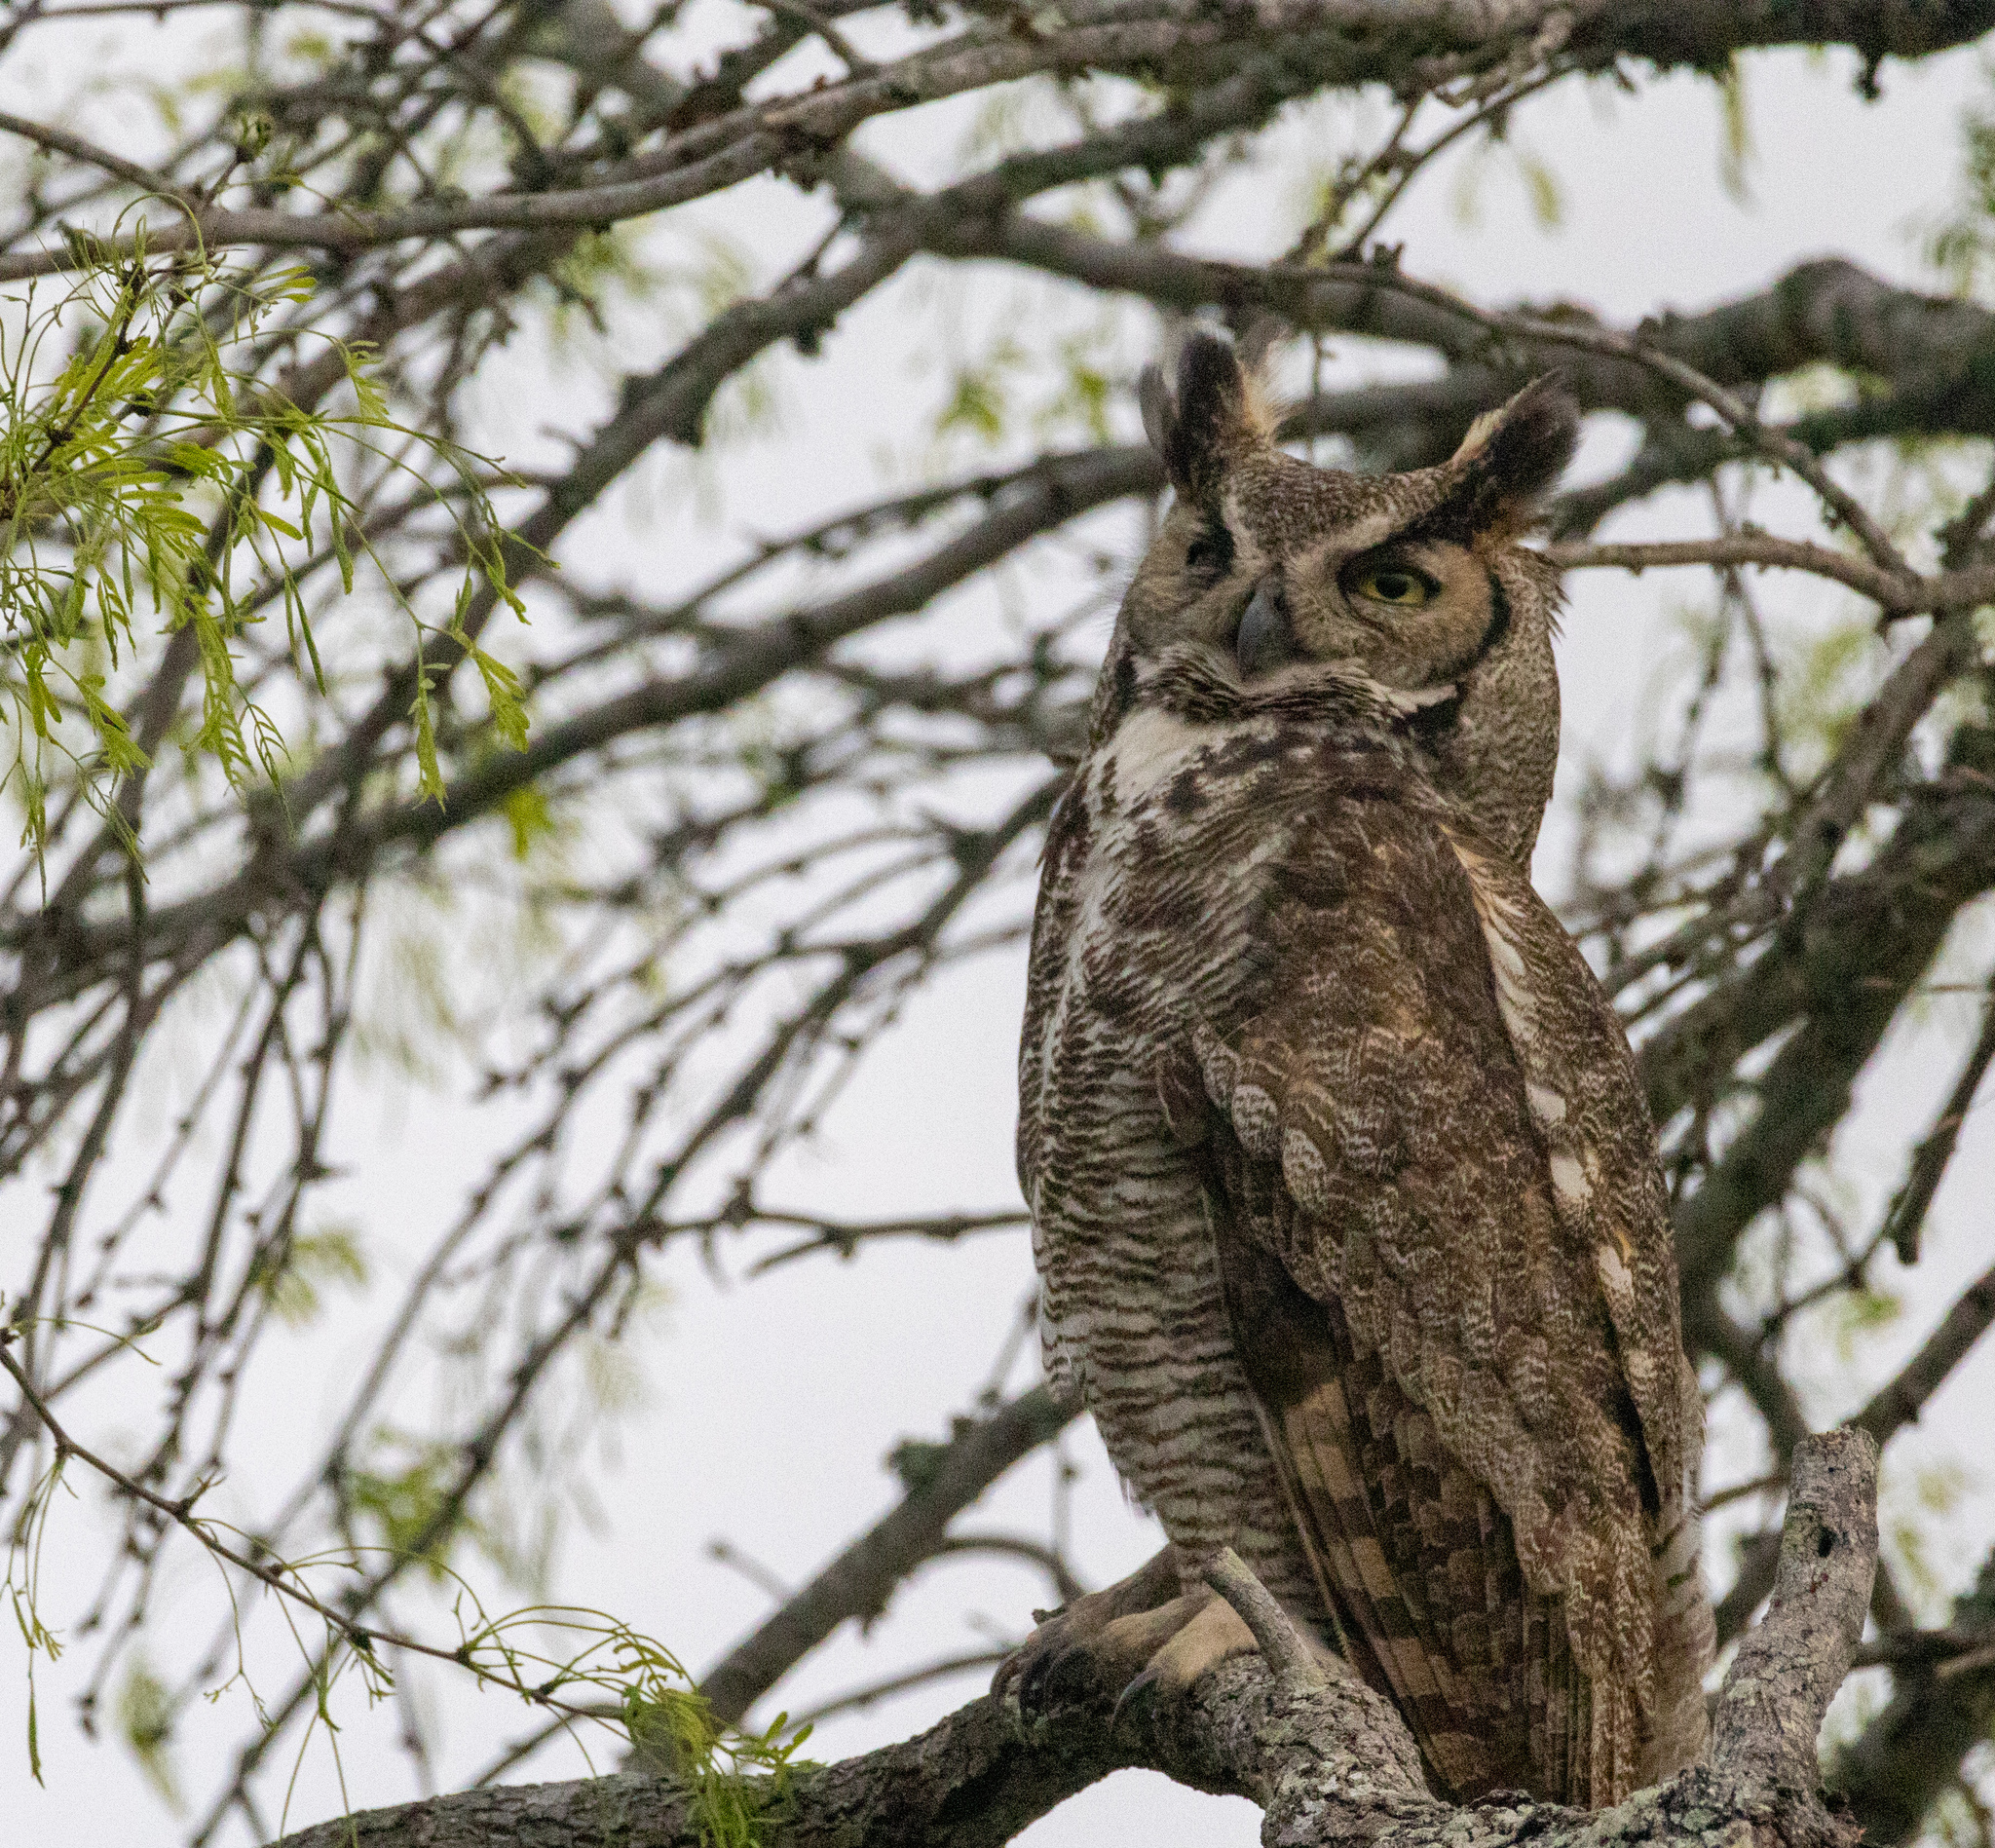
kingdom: Animalia
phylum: Chordata
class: Aves
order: Strigiformes
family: Strigidae
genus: Bubo
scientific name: Bubo virginianus
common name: Great horned owl
